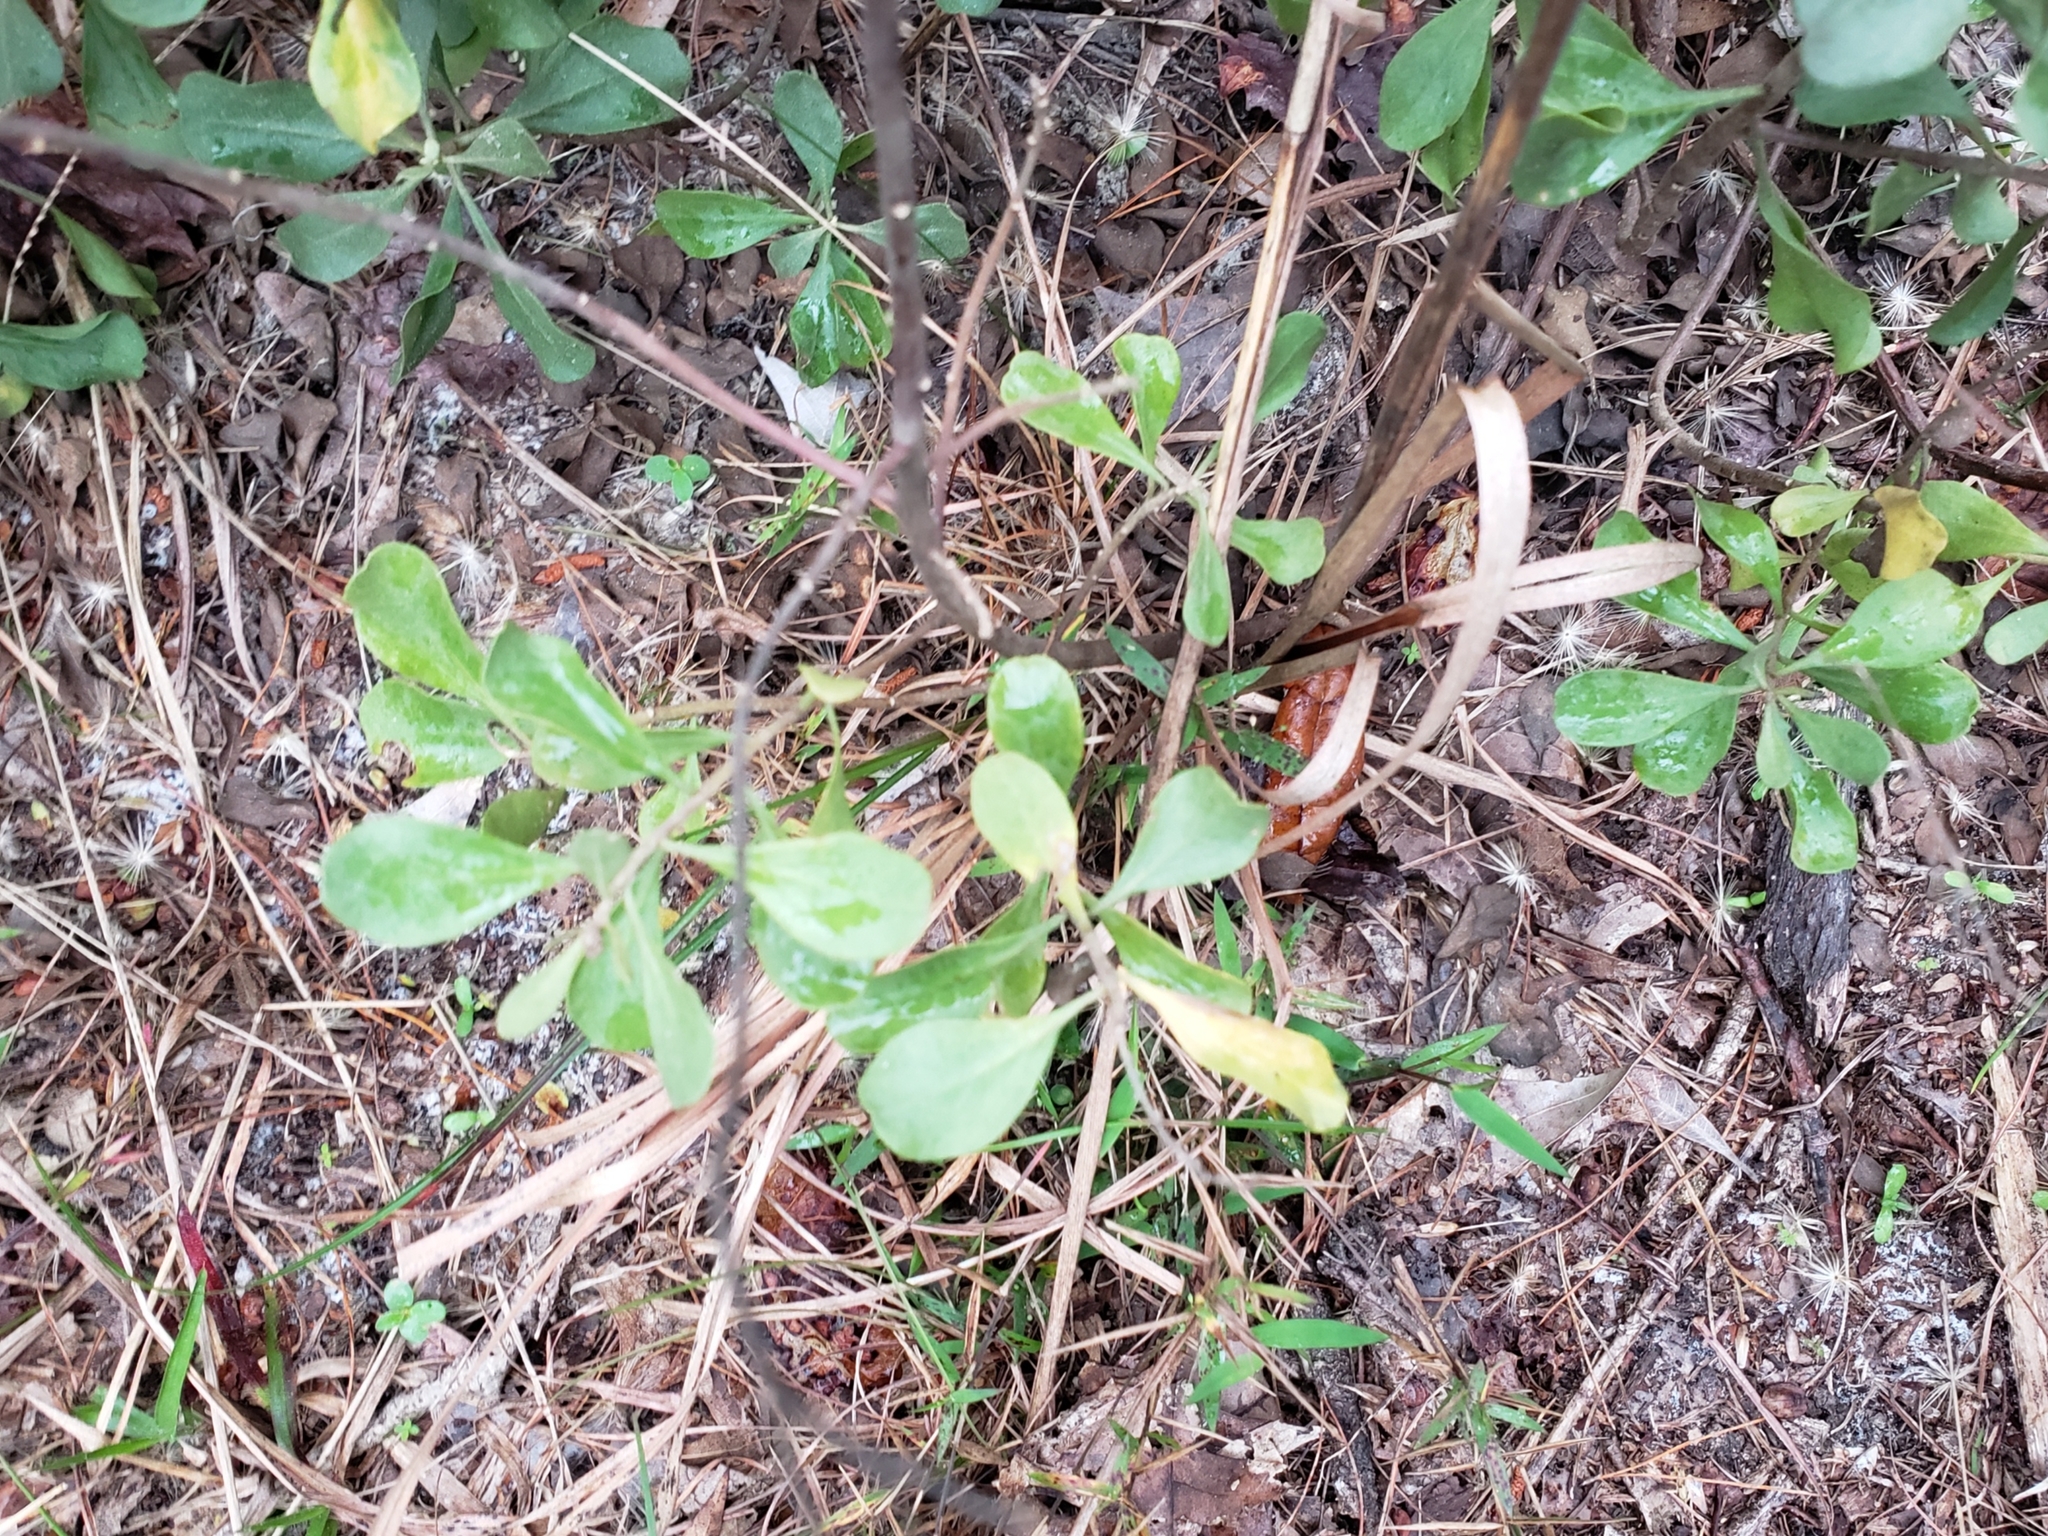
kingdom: Plantae
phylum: Tracheophyta
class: Magnoliopsida
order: Asterales
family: Asteraceae
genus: Garberia
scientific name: Garberia heterophylla
